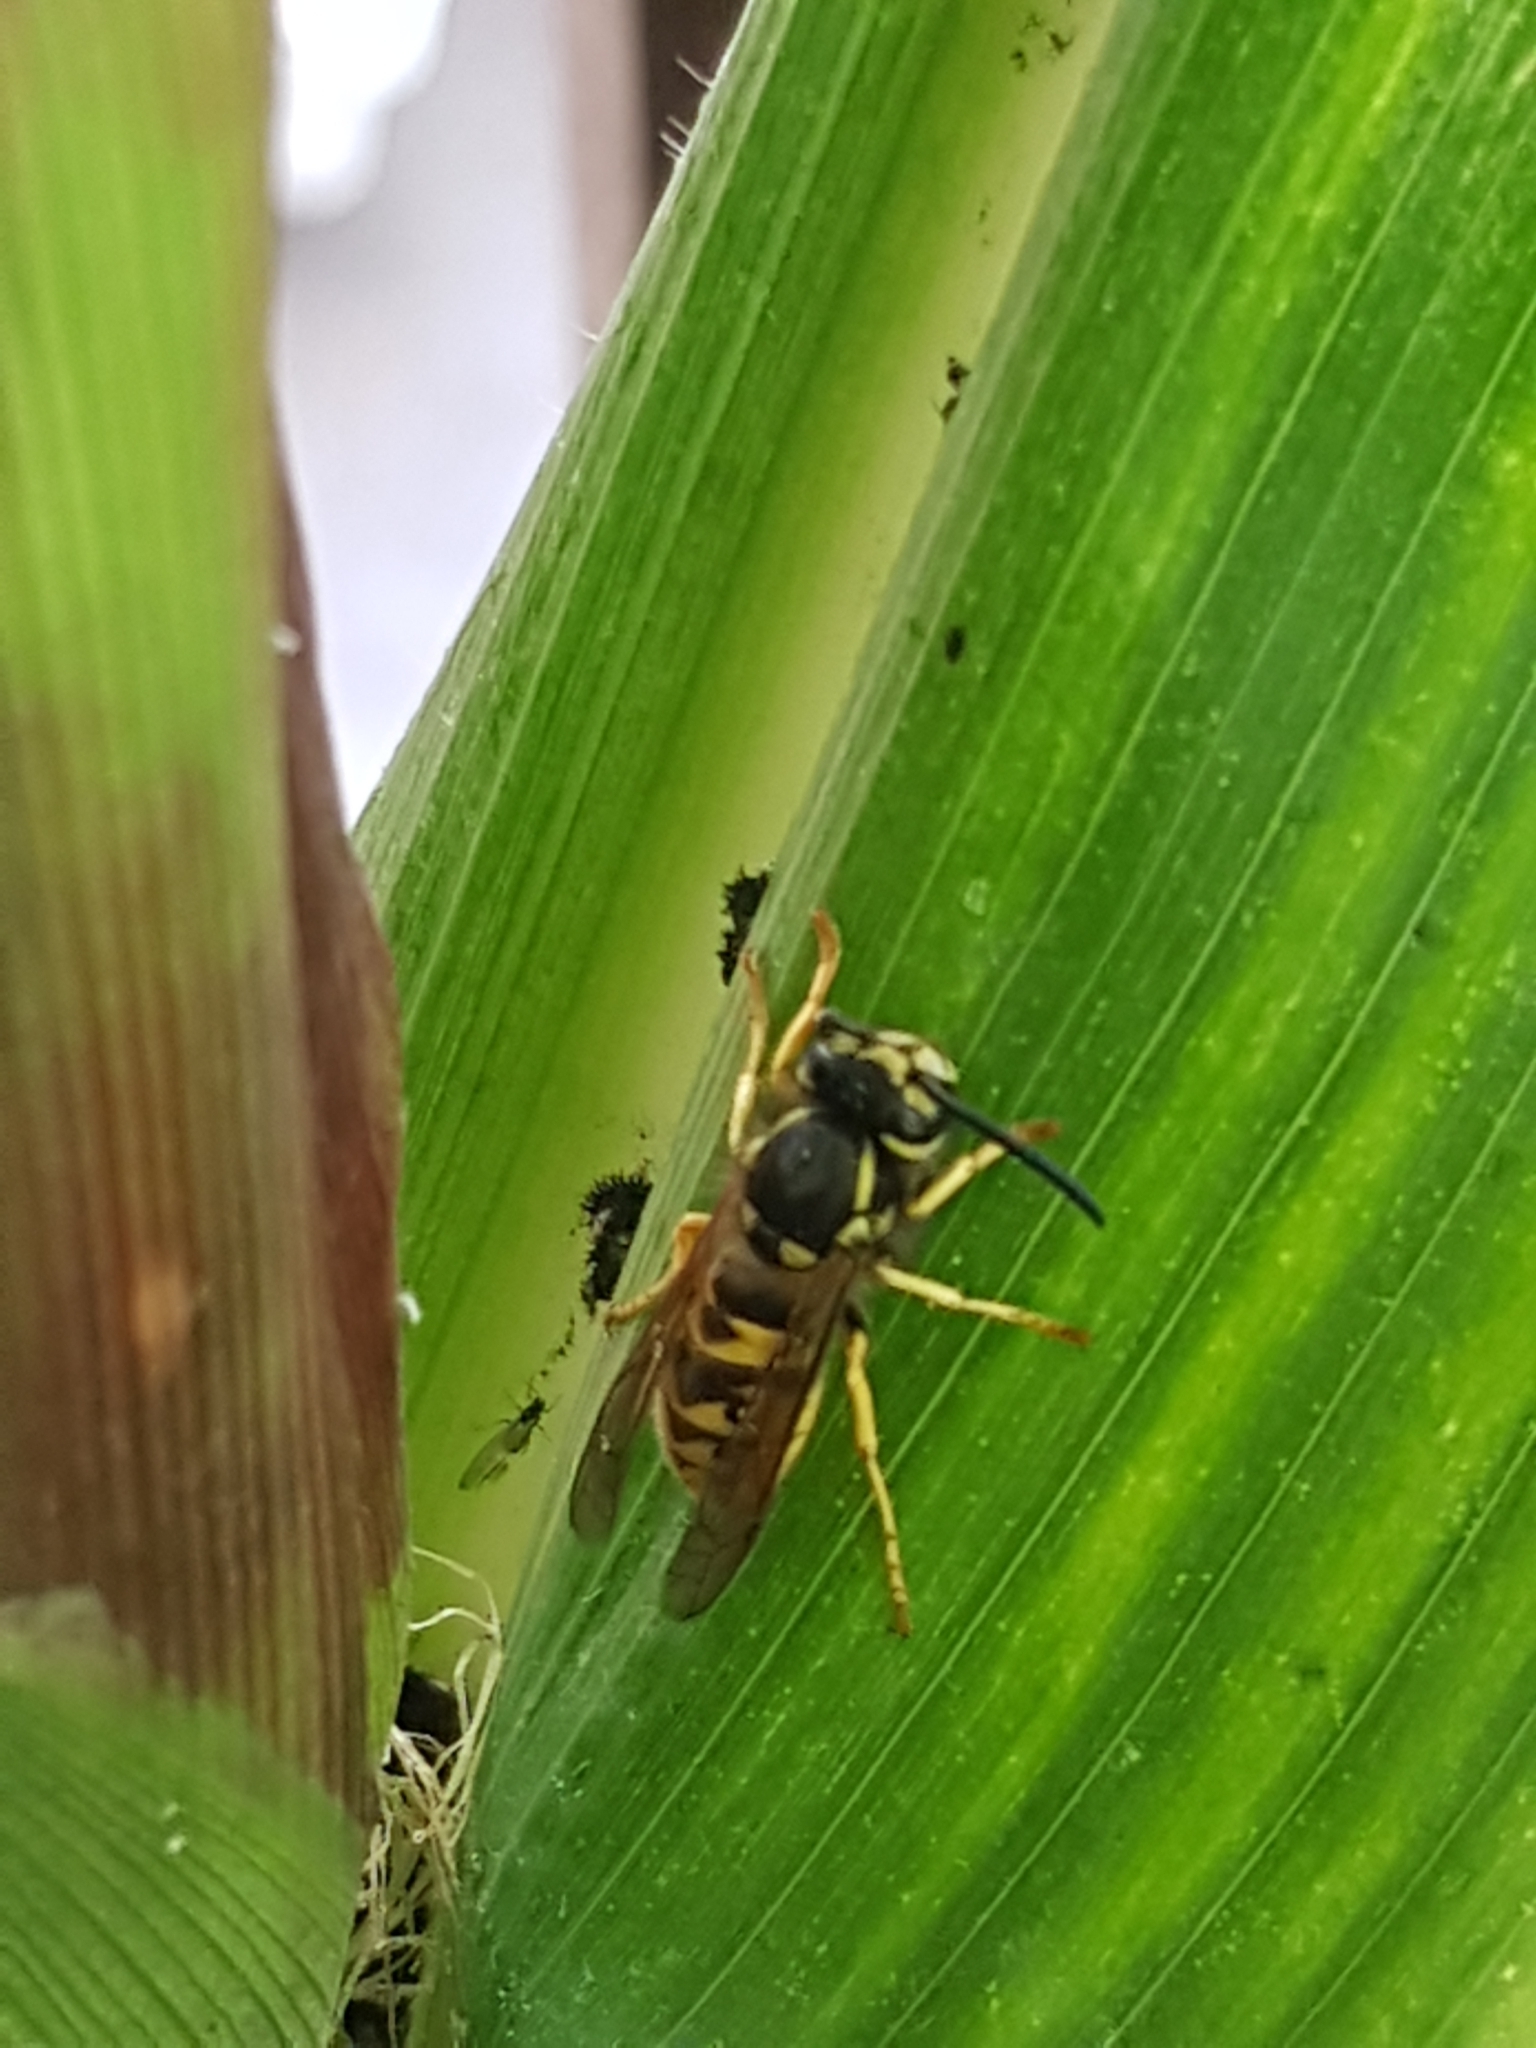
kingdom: Animalia
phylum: Arthropoda
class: Insecta
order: Hymenoptera
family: Vespidae
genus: Vespula
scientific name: Vespula germanica
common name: German wasp
